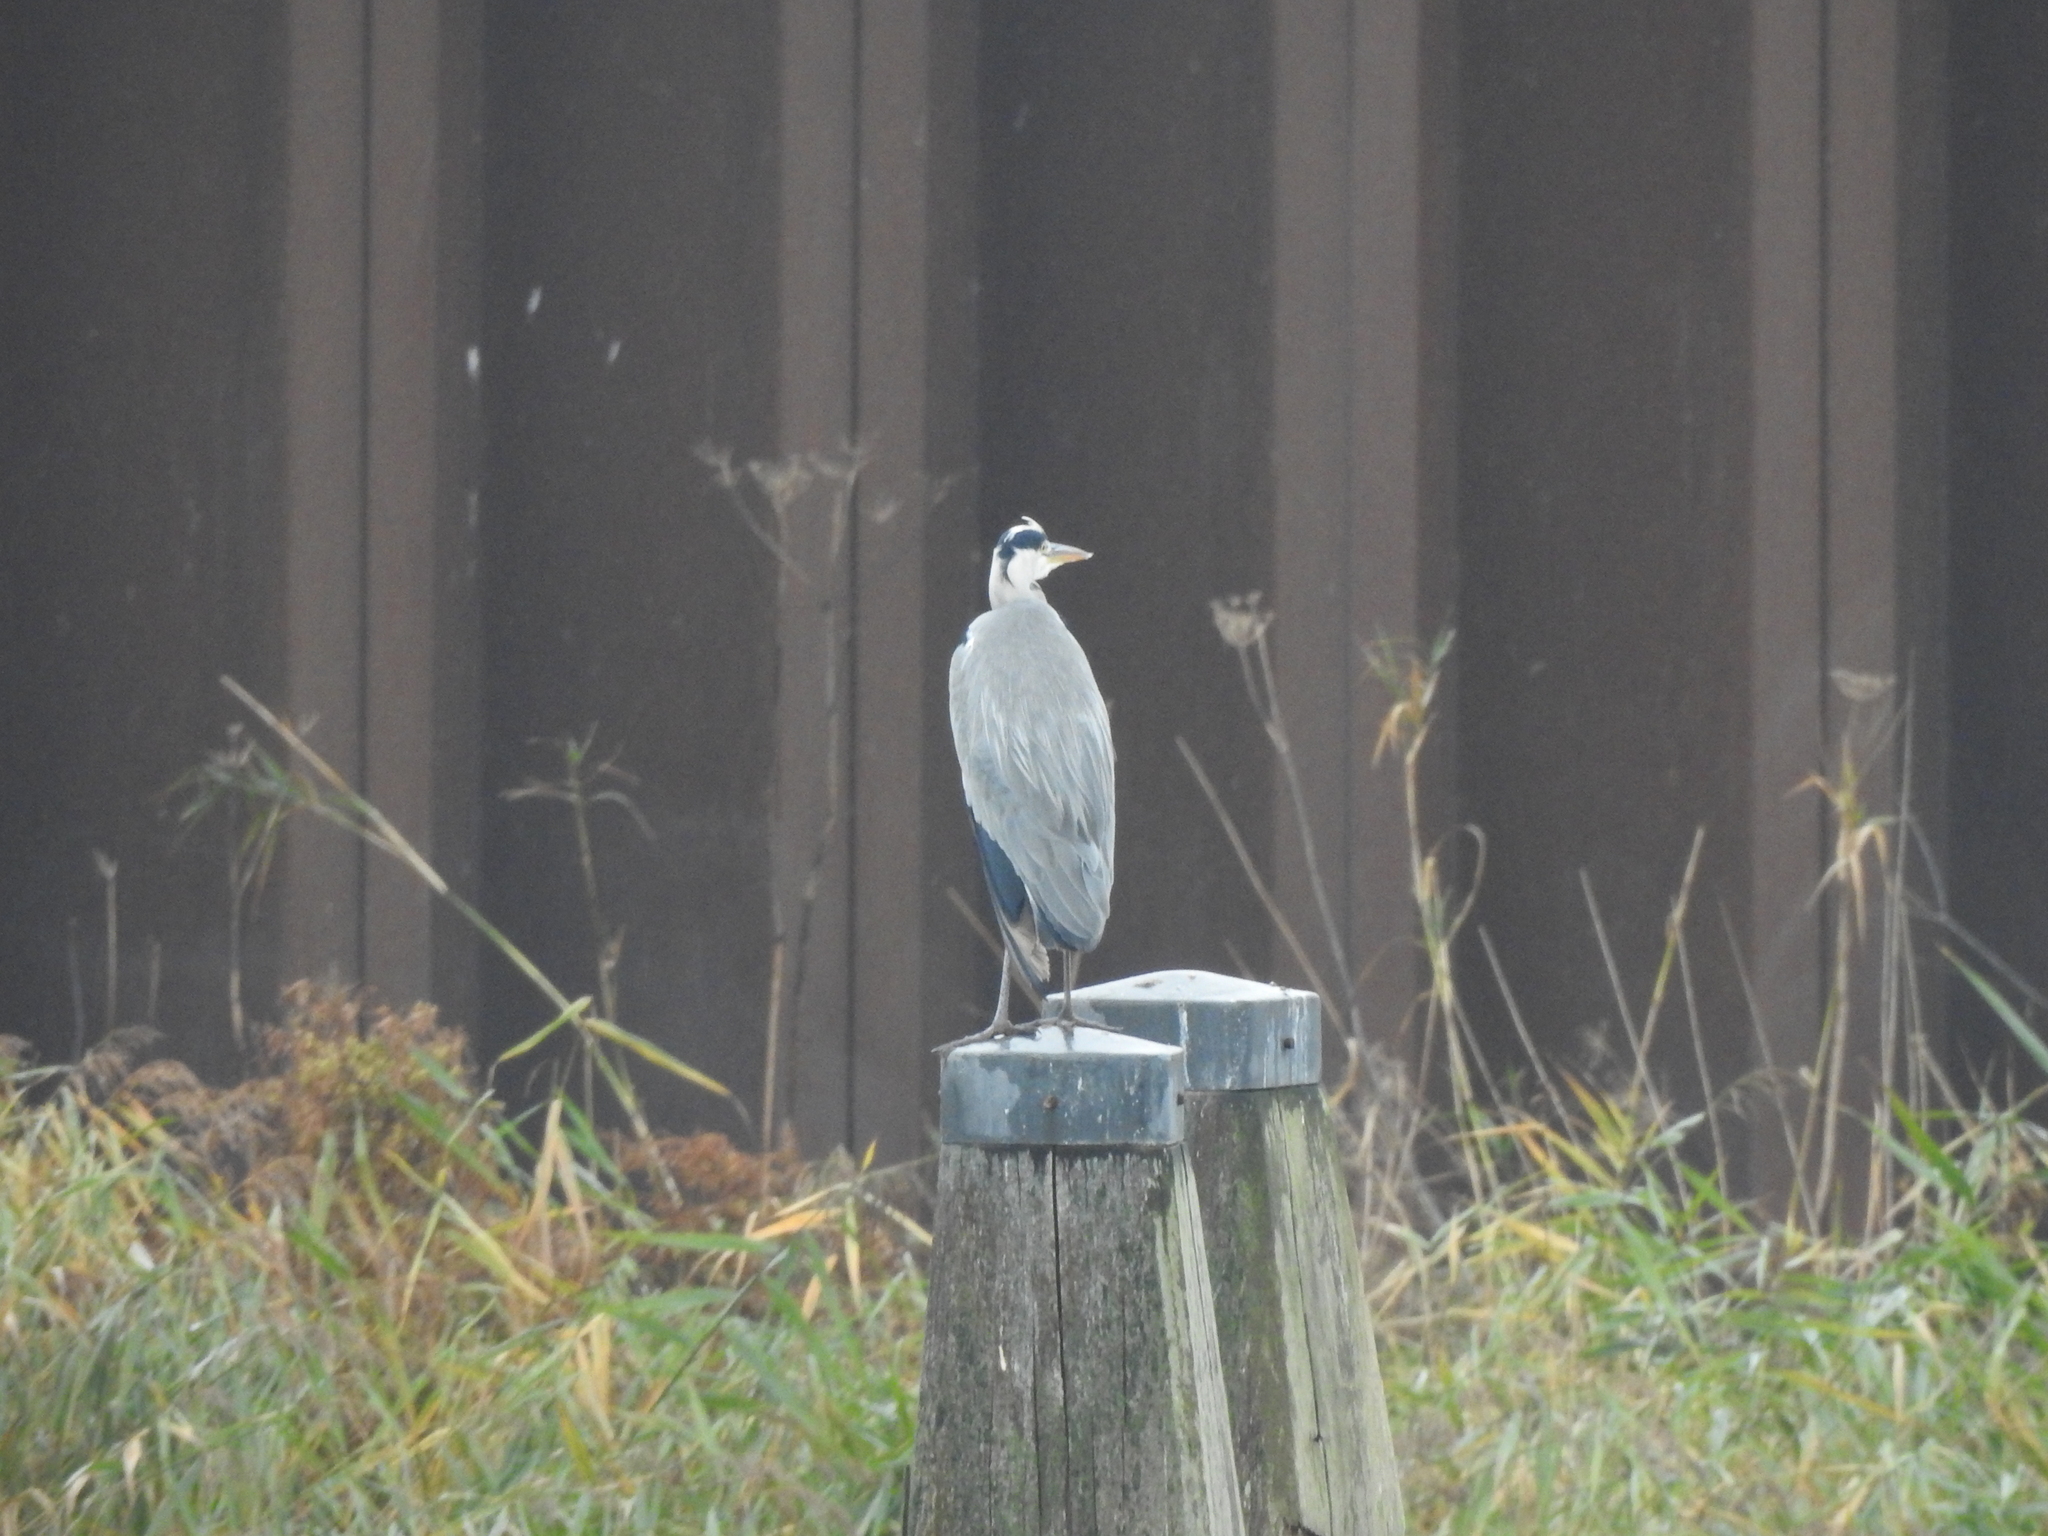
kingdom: Animalia
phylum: Chordata
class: Aves
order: Pelecaniformes
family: Ardeidae
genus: Ardea
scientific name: Ardea cinerea
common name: Grey heron
